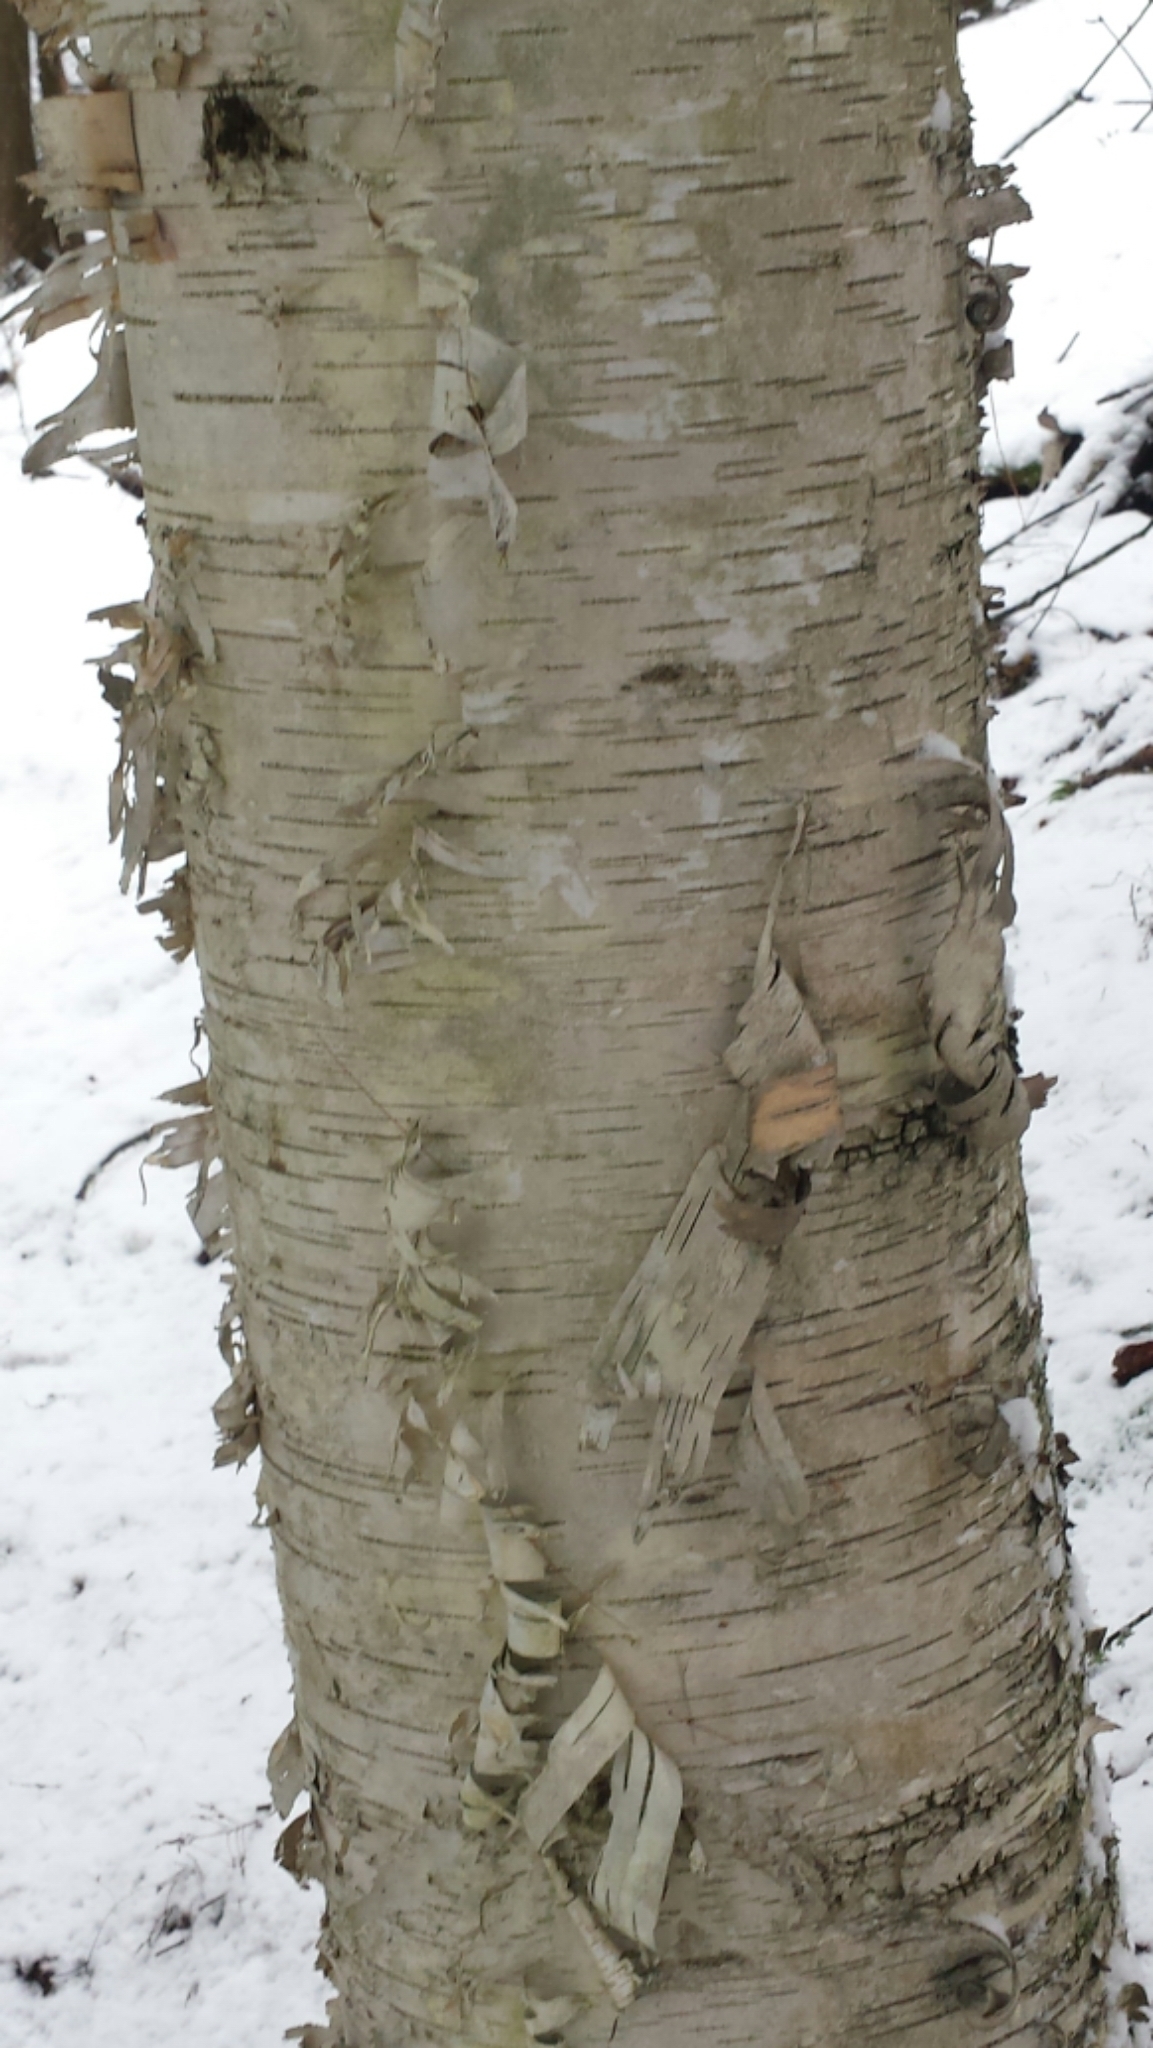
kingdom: Plantae
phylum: Tracheophyta
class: Magnoliopsida
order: Fagales
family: Betulaceae
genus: Betula
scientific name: Betula papyrifera
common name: Paper birch
